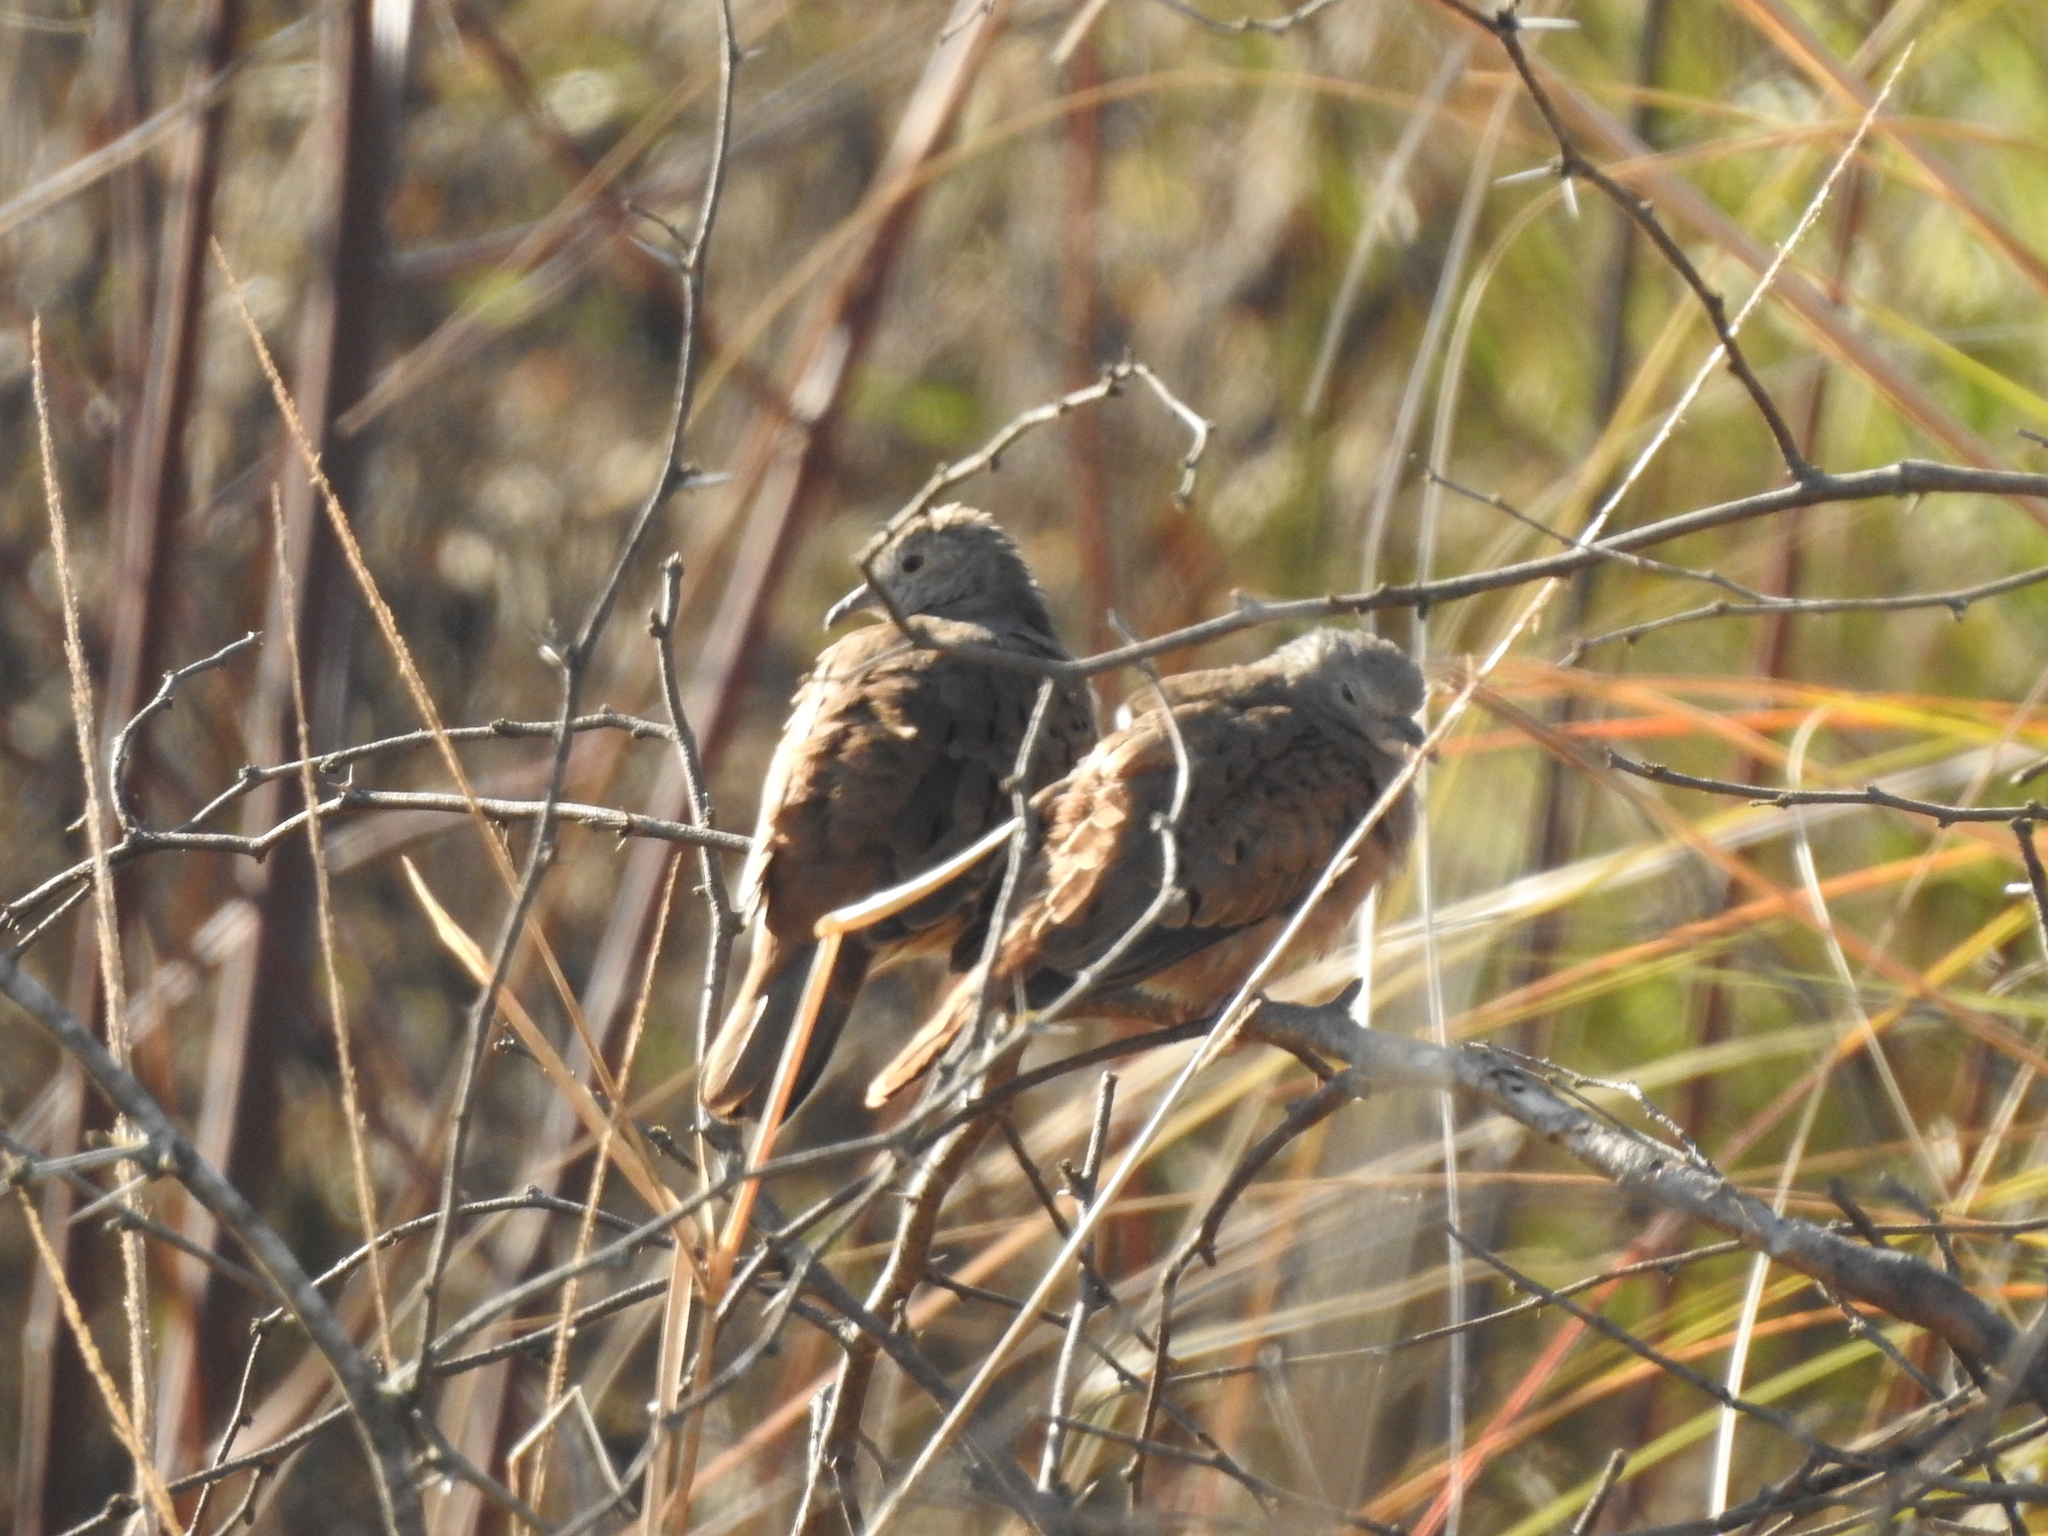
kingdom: Animalia
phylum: Chordata
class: Aves
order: Columbiformes
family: Columbidae
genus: Columbina
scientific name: Columbina talpacoti
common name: Ruddy ground dove
